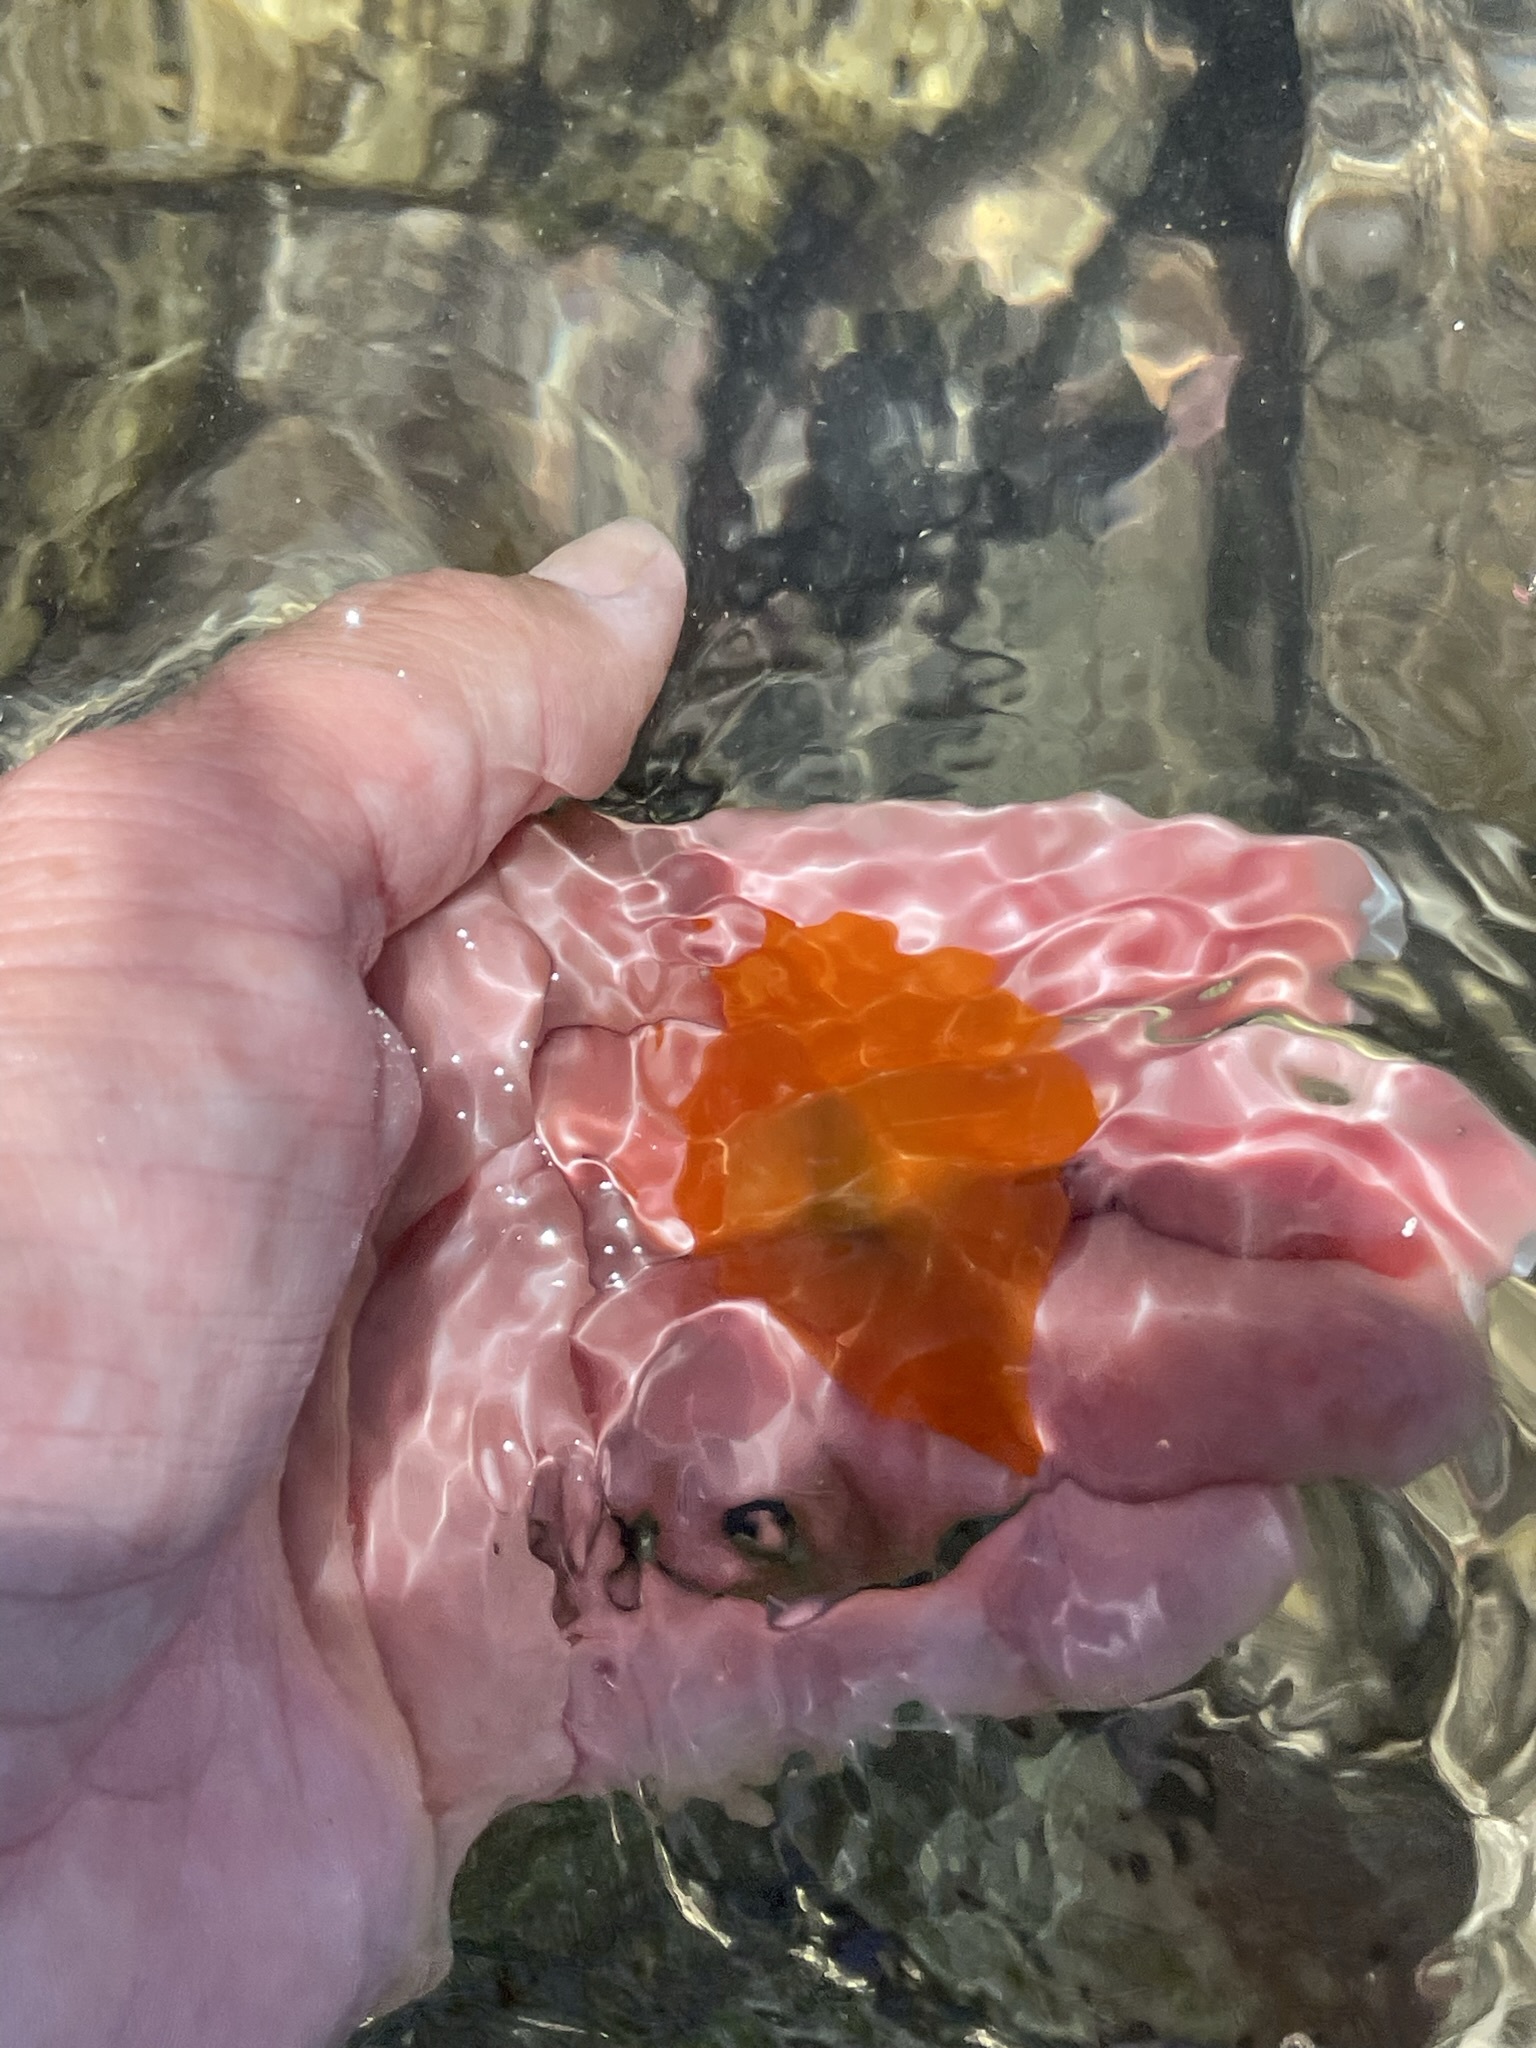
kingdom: Animalia
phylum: Mollusca
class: Gastropoda
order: Pleurobranchida
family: Pleurobranchidae
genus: Berthellina
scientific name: Berthellina ilisima
